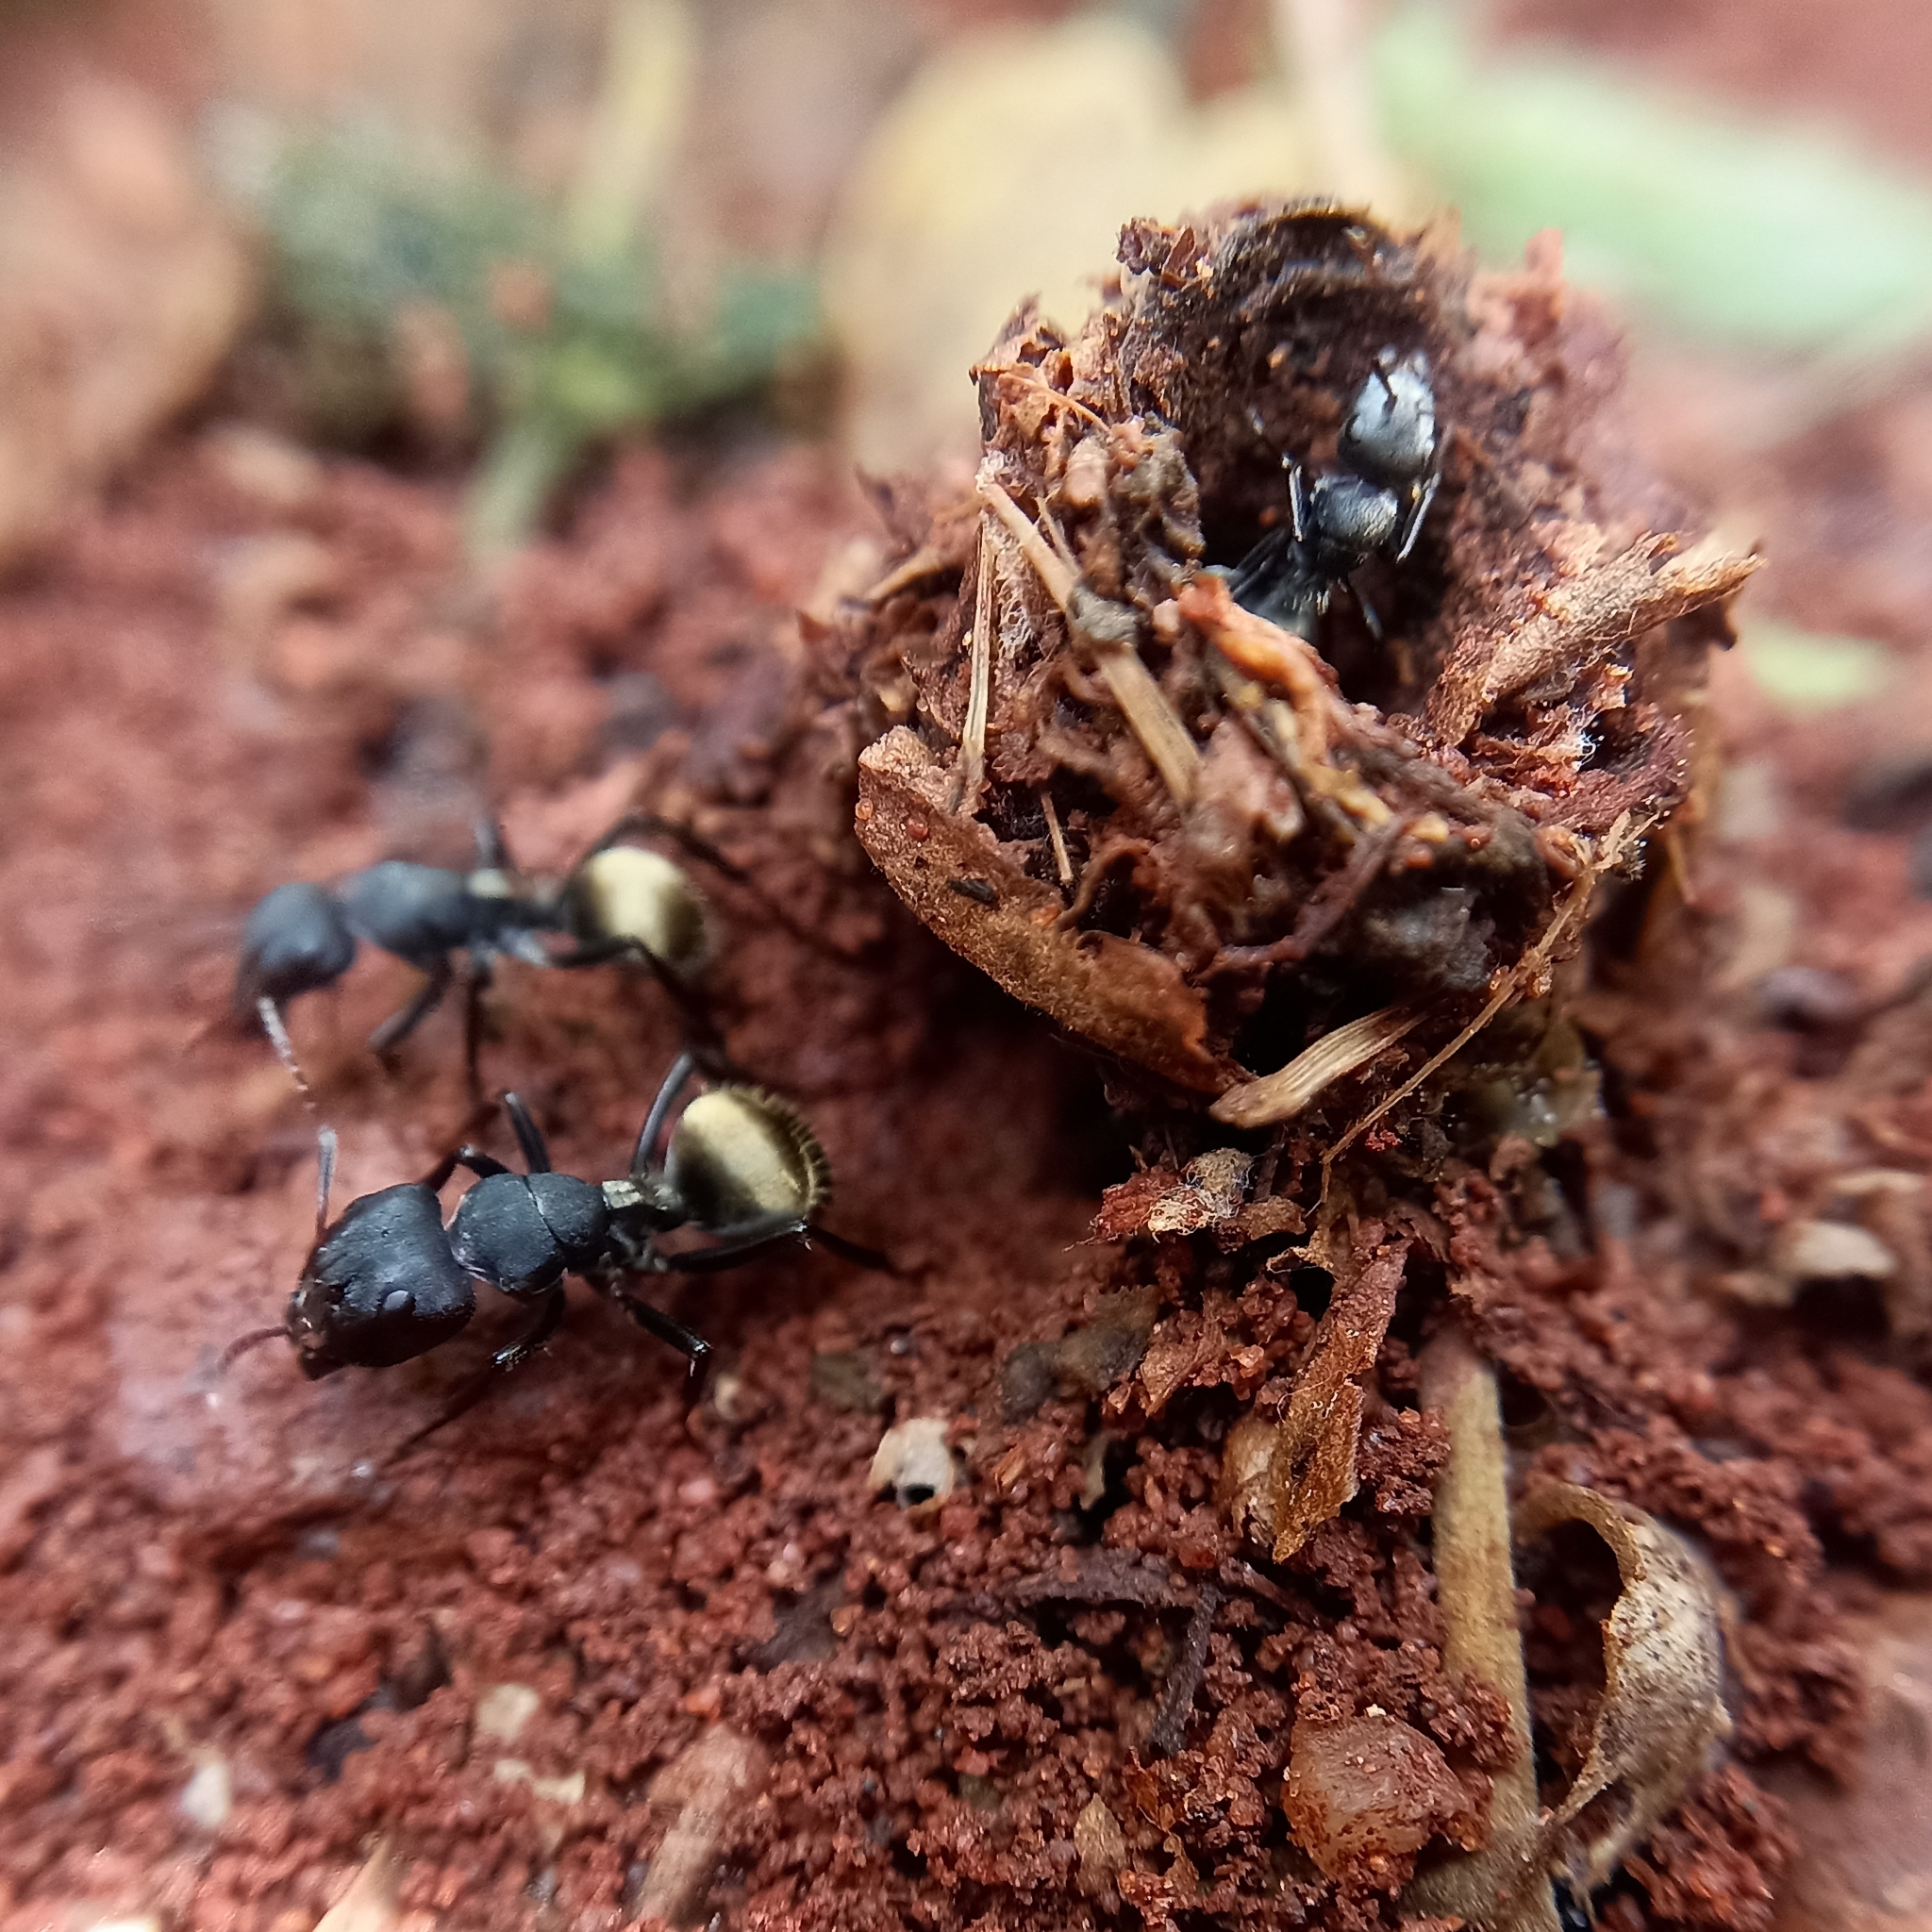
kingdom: Animalia
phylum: Arthropoda
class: Insecta
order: Hymenoptera
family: Formicidae
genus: Camponotus
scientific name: Camponotus sericeus
